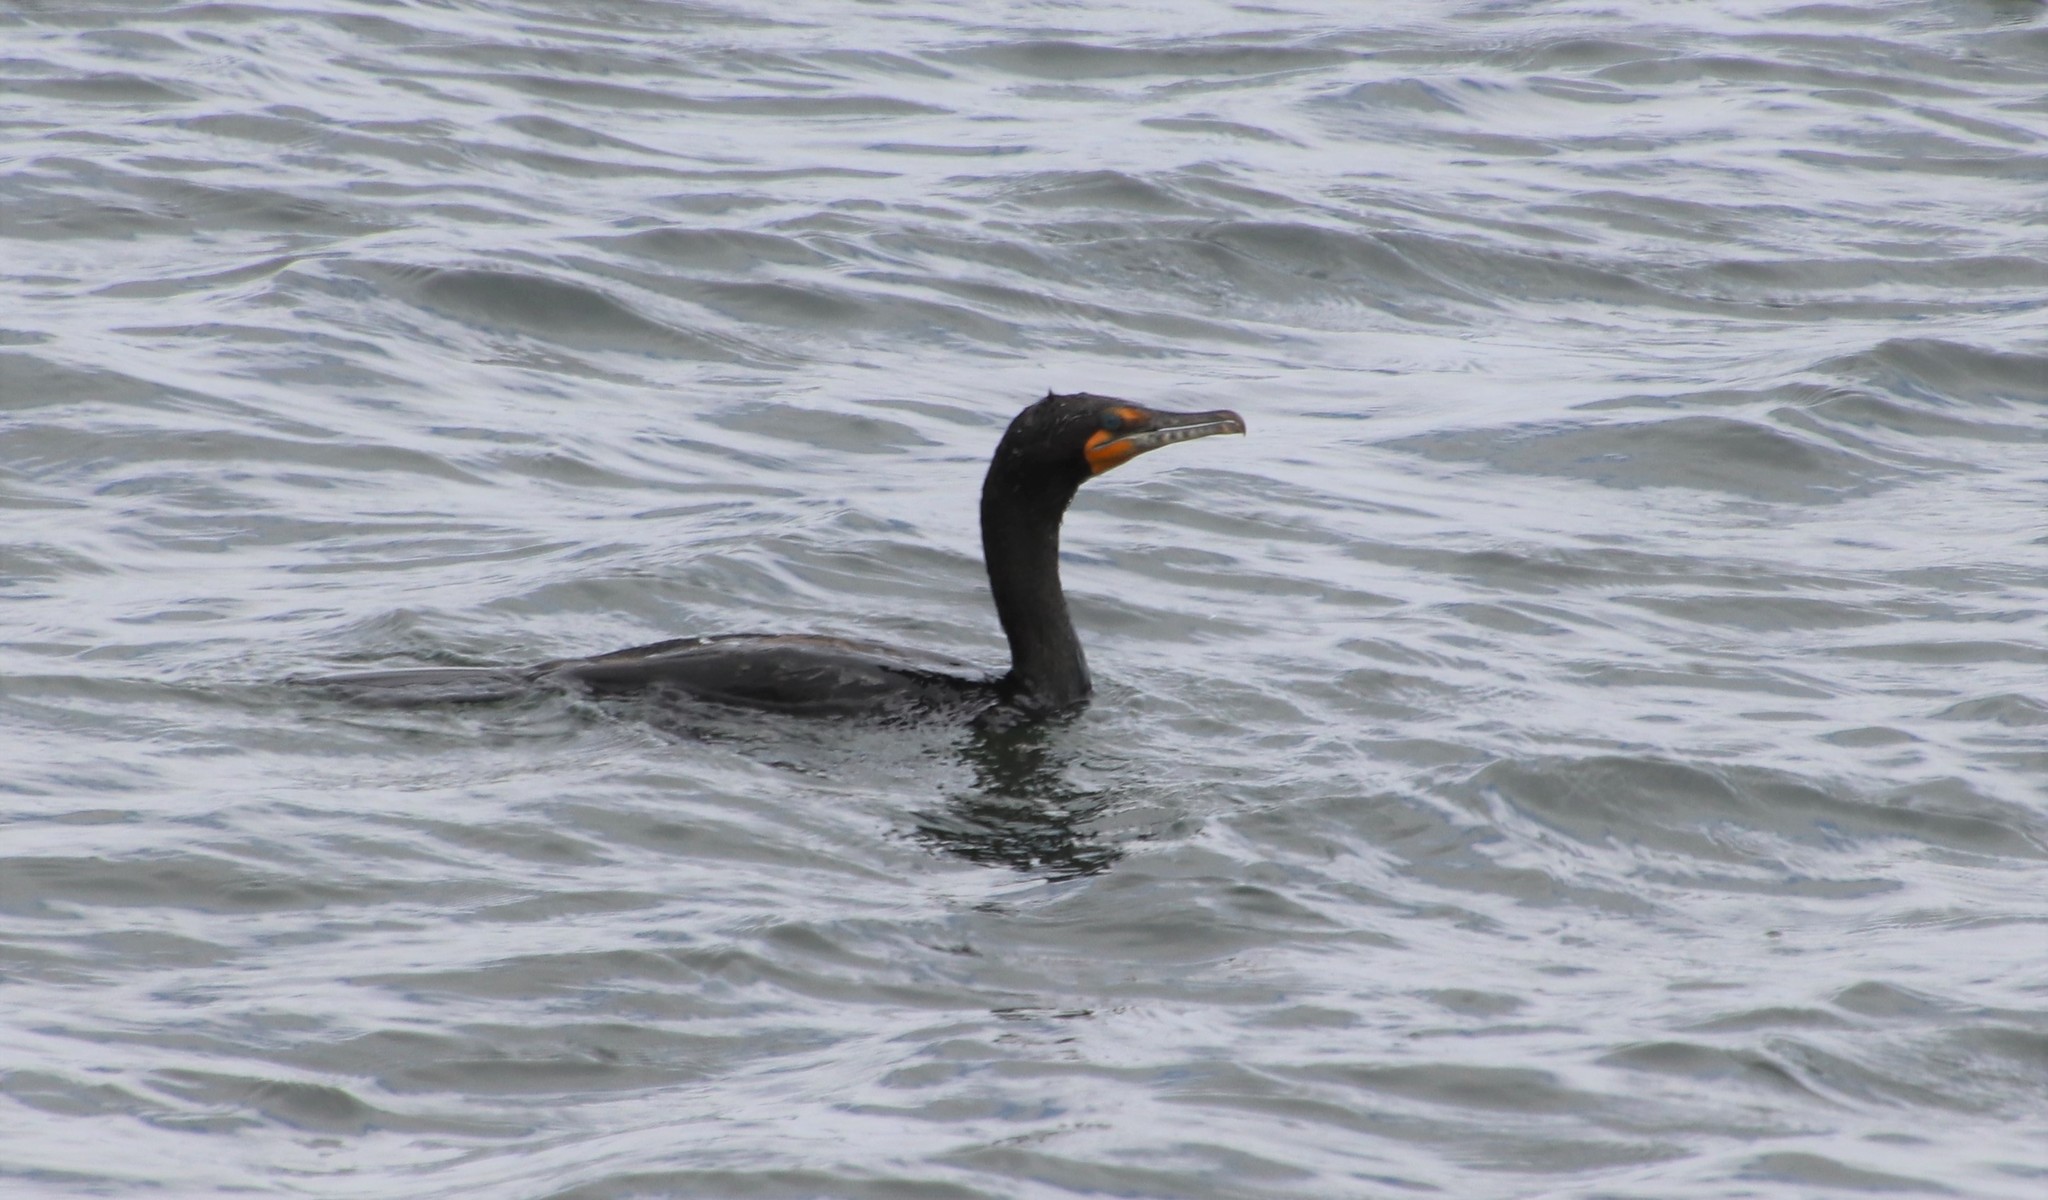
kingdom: Animalia
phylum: Chordata
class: Aves
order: Suliformes
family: Phalacrocoracidae
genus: Phalacrocorax
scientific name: Phalacrocorax auritus
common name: Double-crested cormorant
